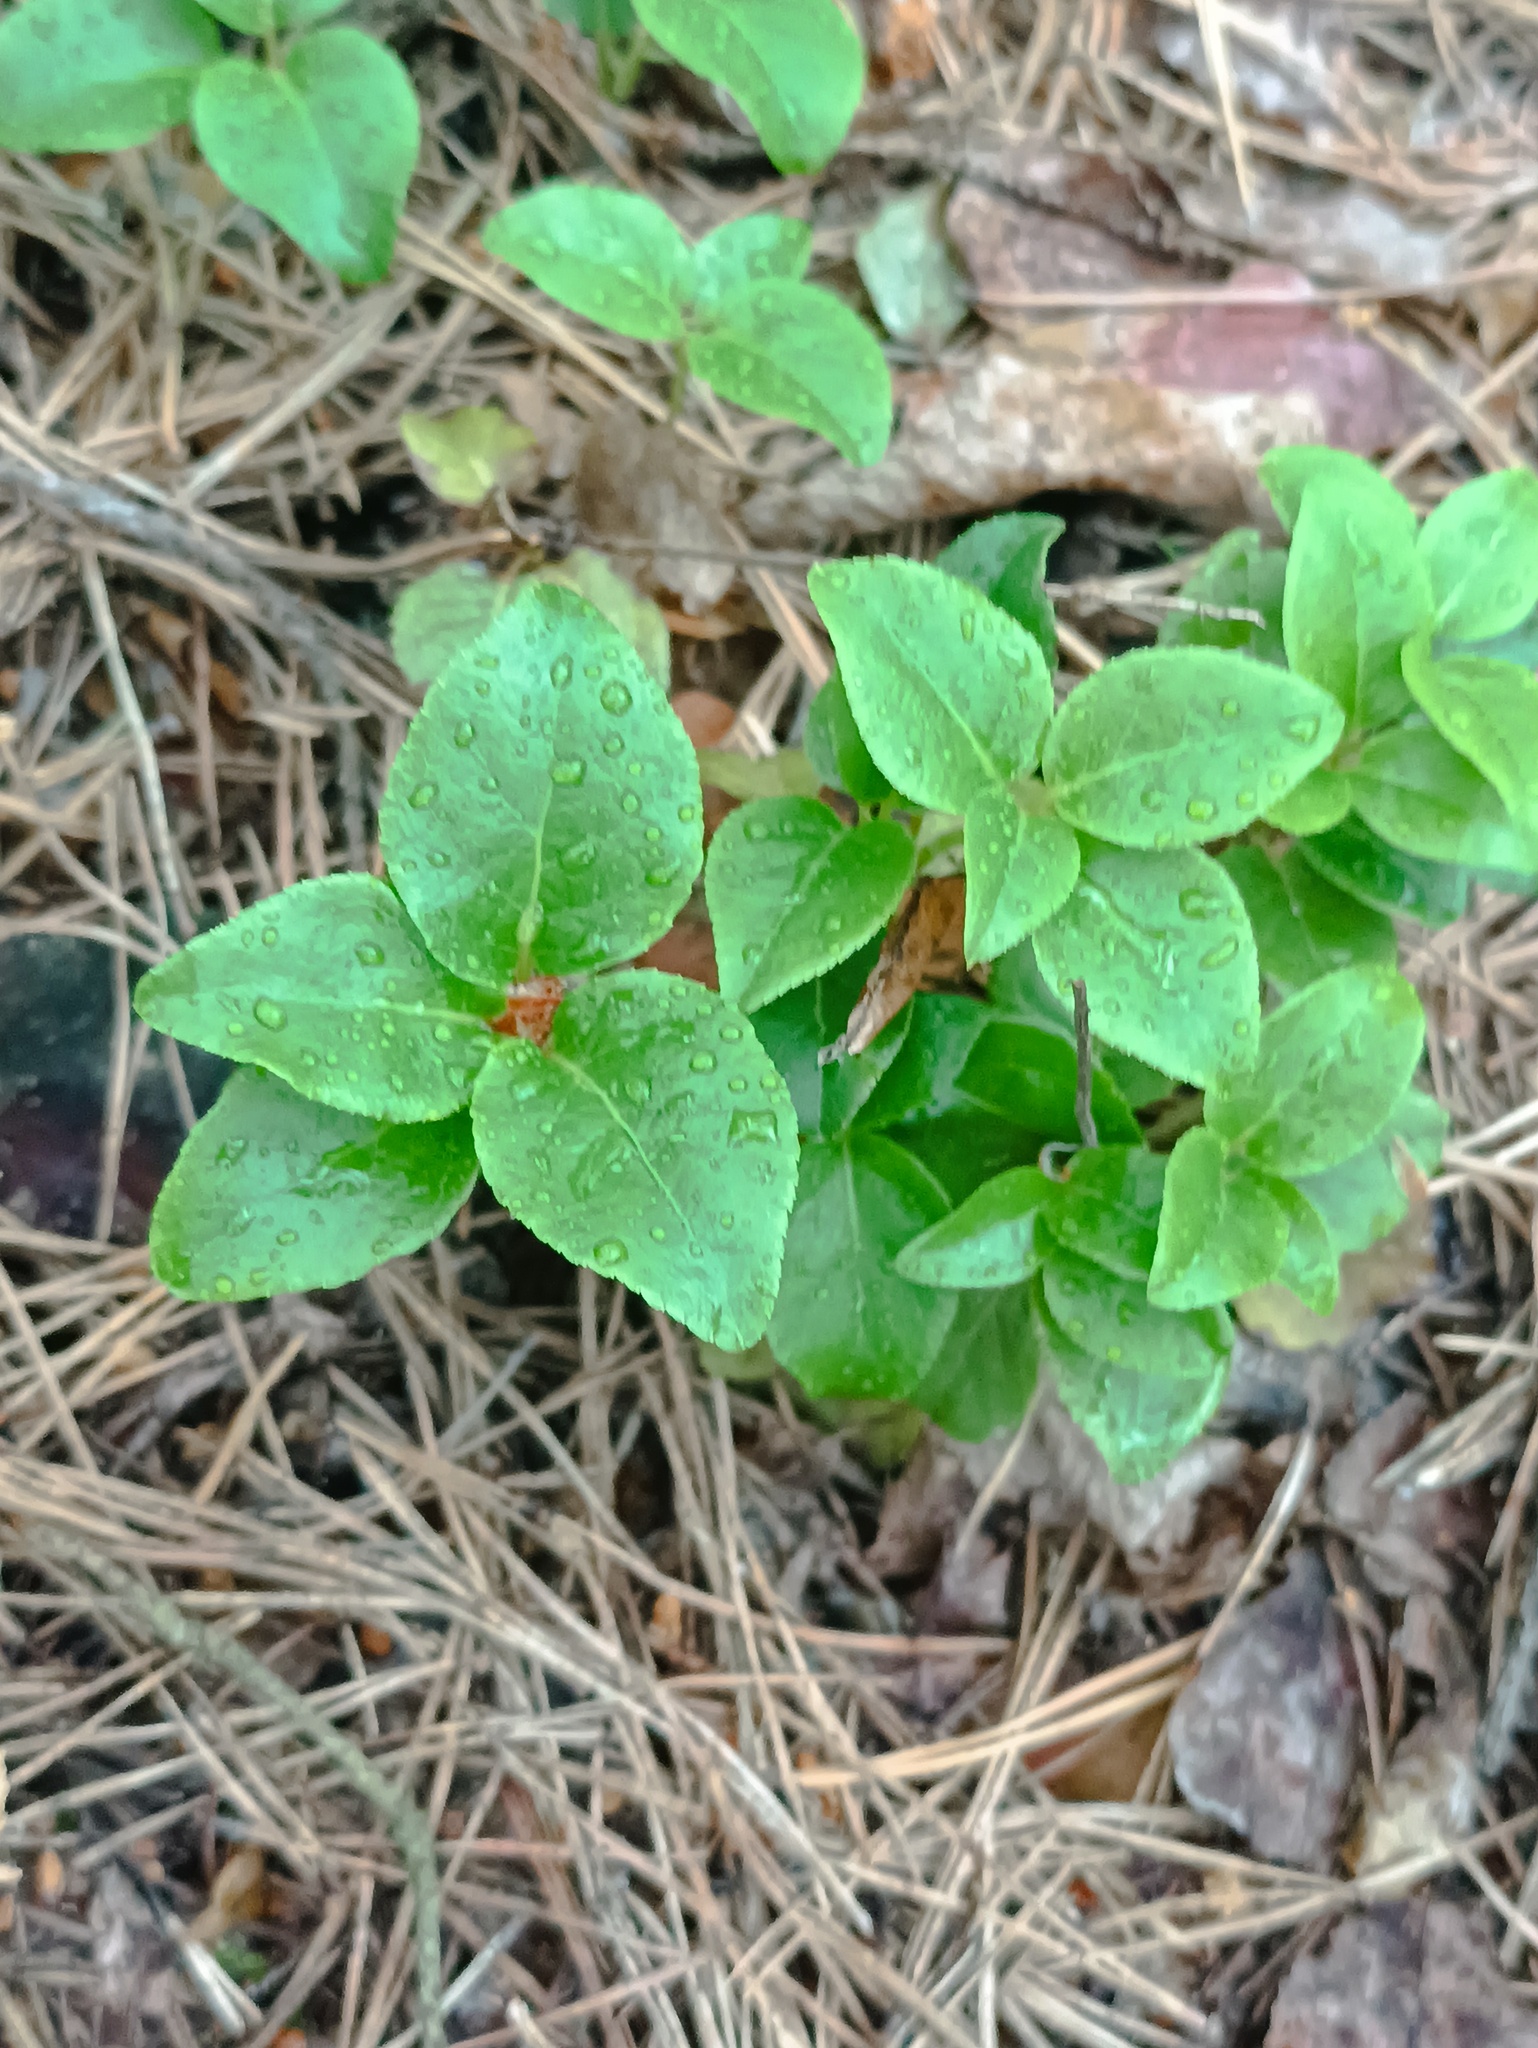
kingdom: Plantae
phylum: Tracheophyta
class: Magnoliopsida
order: Ericales
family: Ericaceae
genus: Orthilia
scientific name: Orthilia secunda
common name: One-sided orthilia
